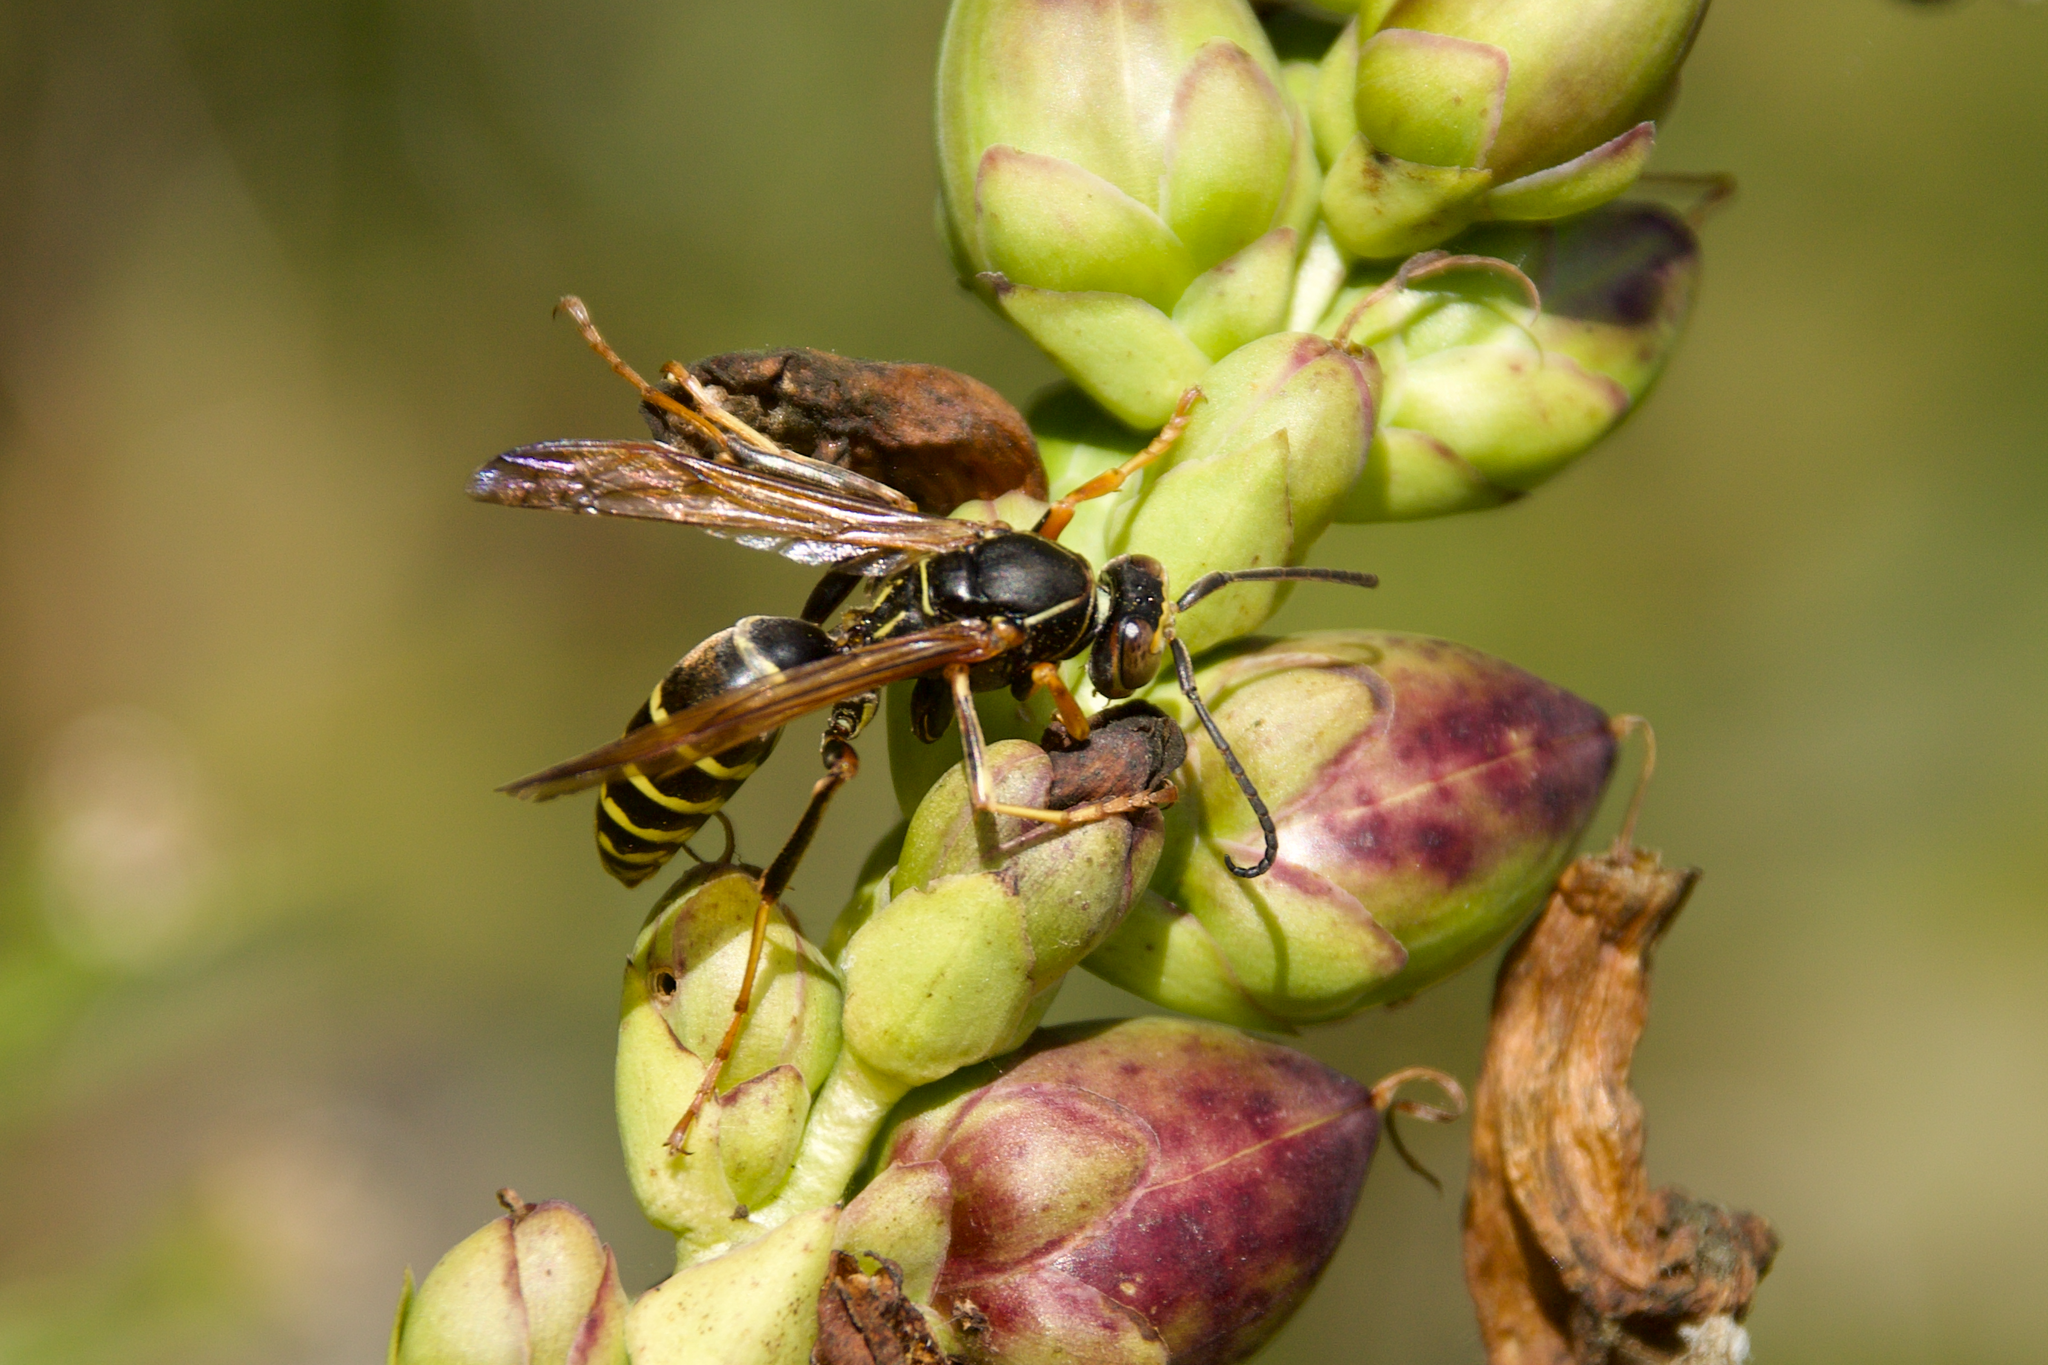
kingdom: Animalia
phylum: Arthropoda
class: Insecta
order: Hymenoptera
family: Eumenidae
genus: Polistes
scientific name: Polistes fuscatus
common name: Dark paper wasp
